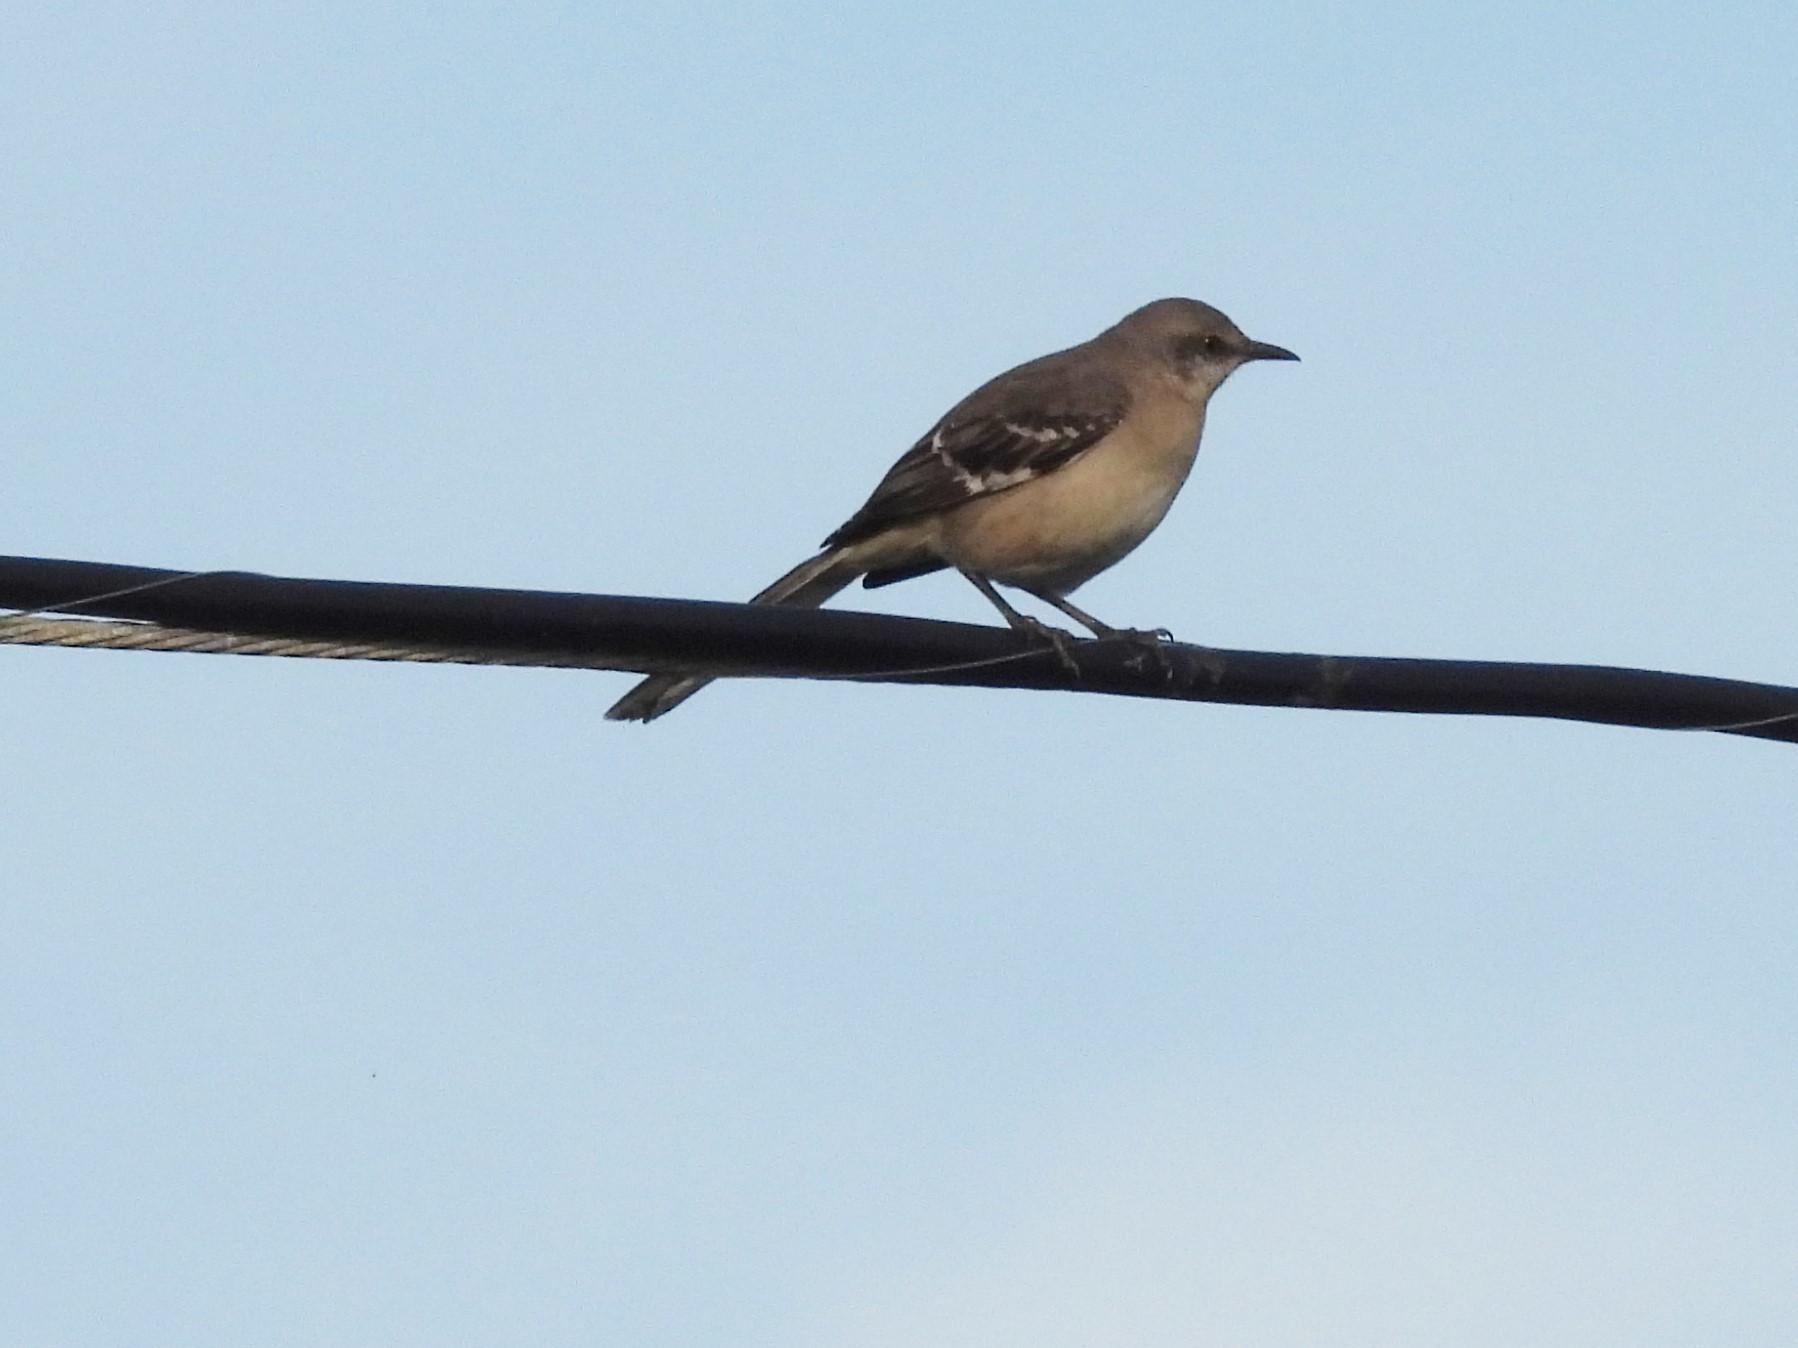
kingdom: Animalia
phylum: Chordata
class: Aves
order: Passeriformes
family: Mimidae
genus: Mimus
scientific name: Mimus polyglottos
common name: Northern mockingbird
